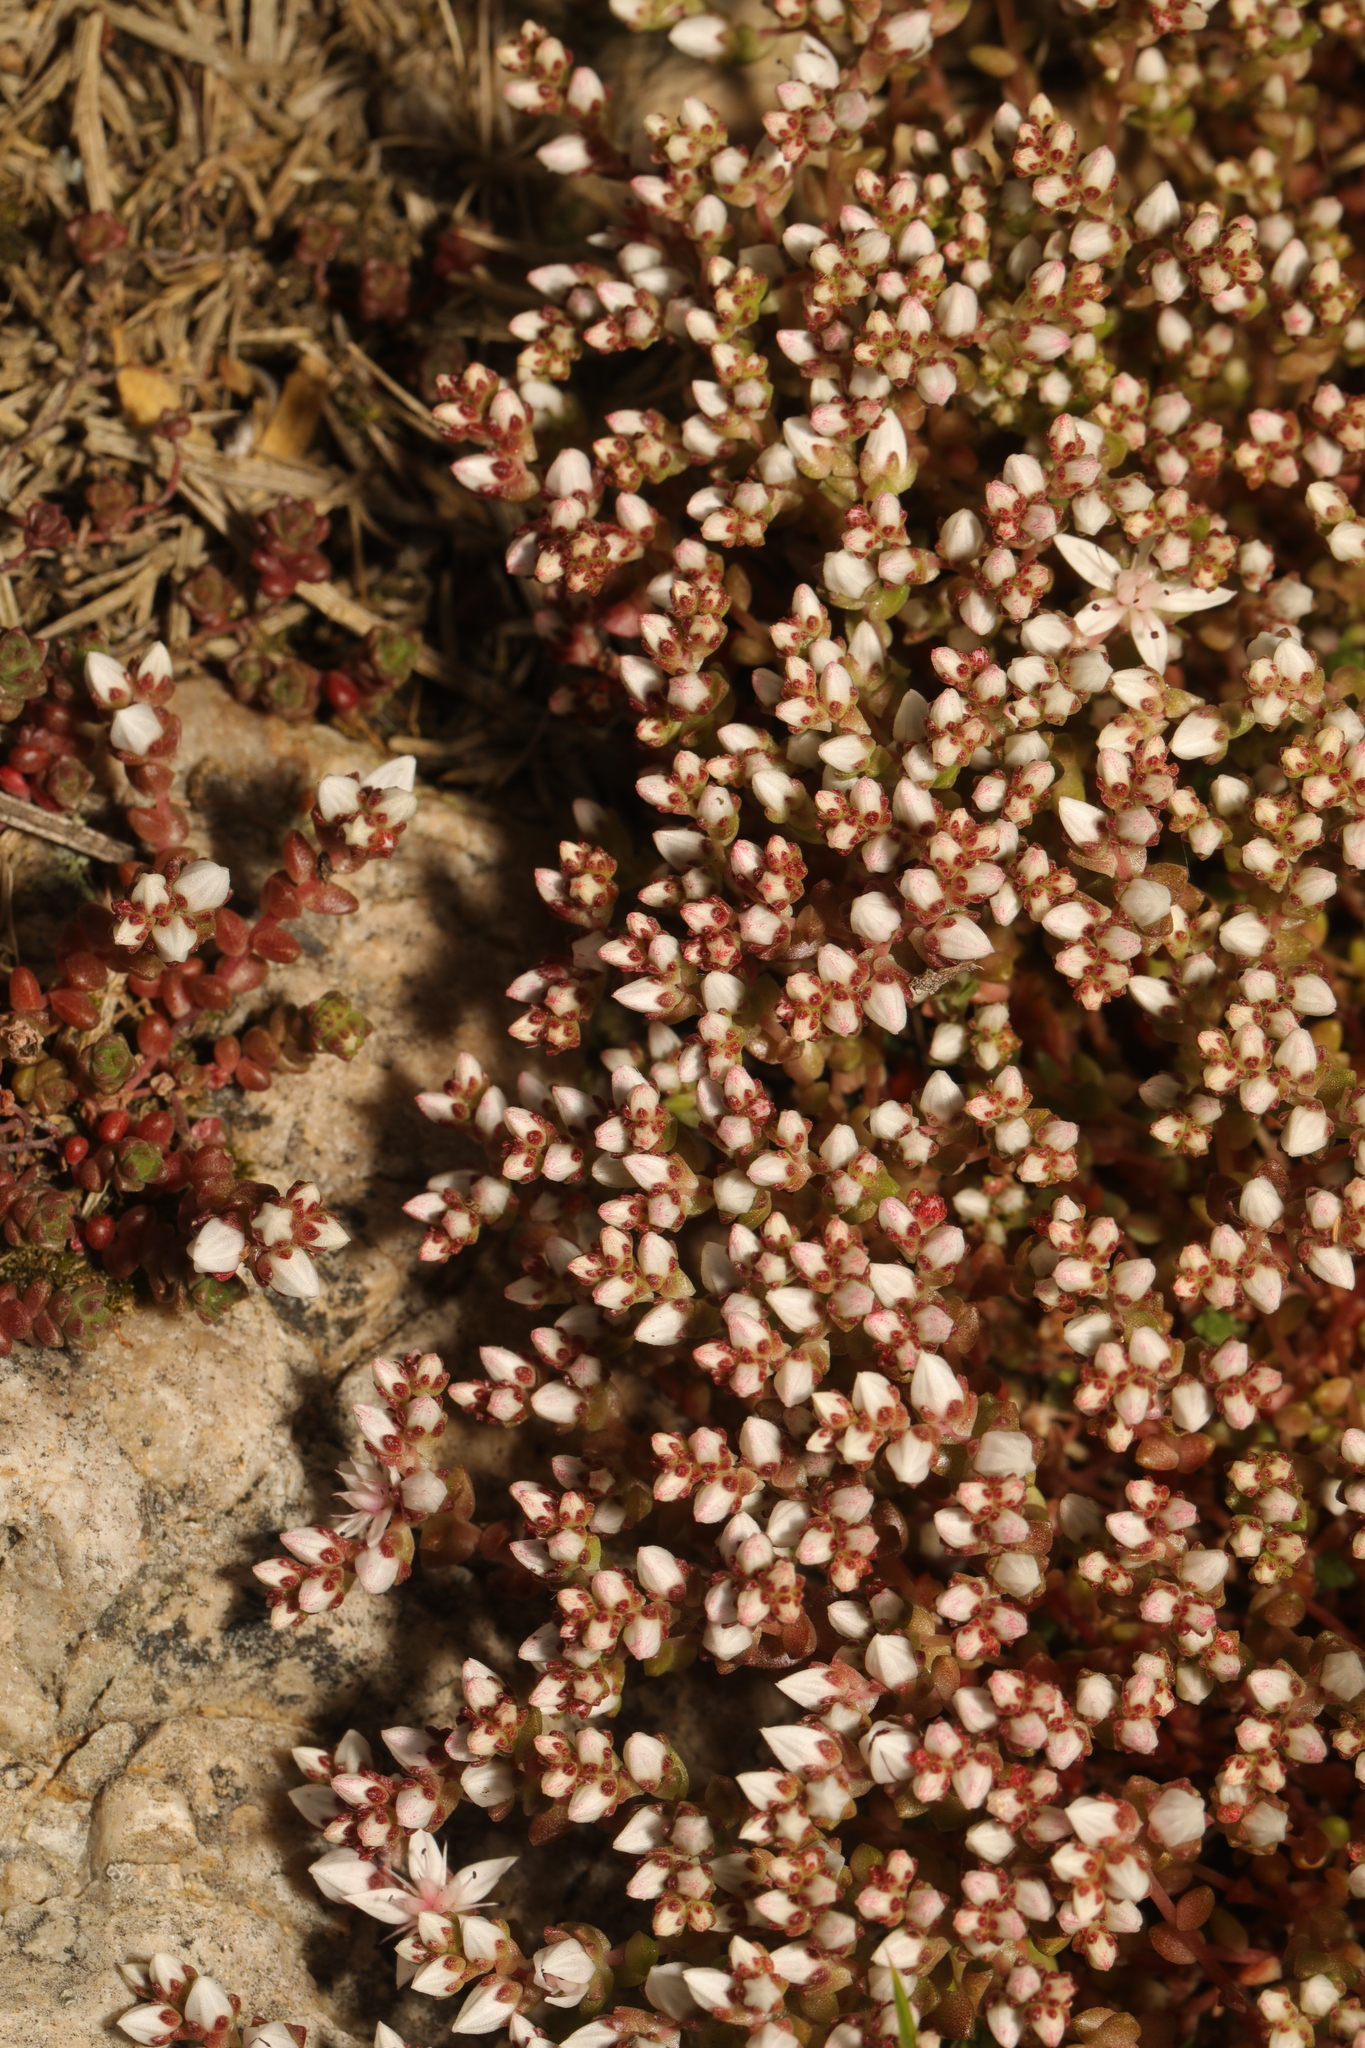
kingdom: Plantae
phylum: Tracheophyta
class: Magnoliopsida
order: Saxifragales
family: Crassulaceae
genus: Sedum
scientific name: Sedum anglicum
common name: English stonecrop
